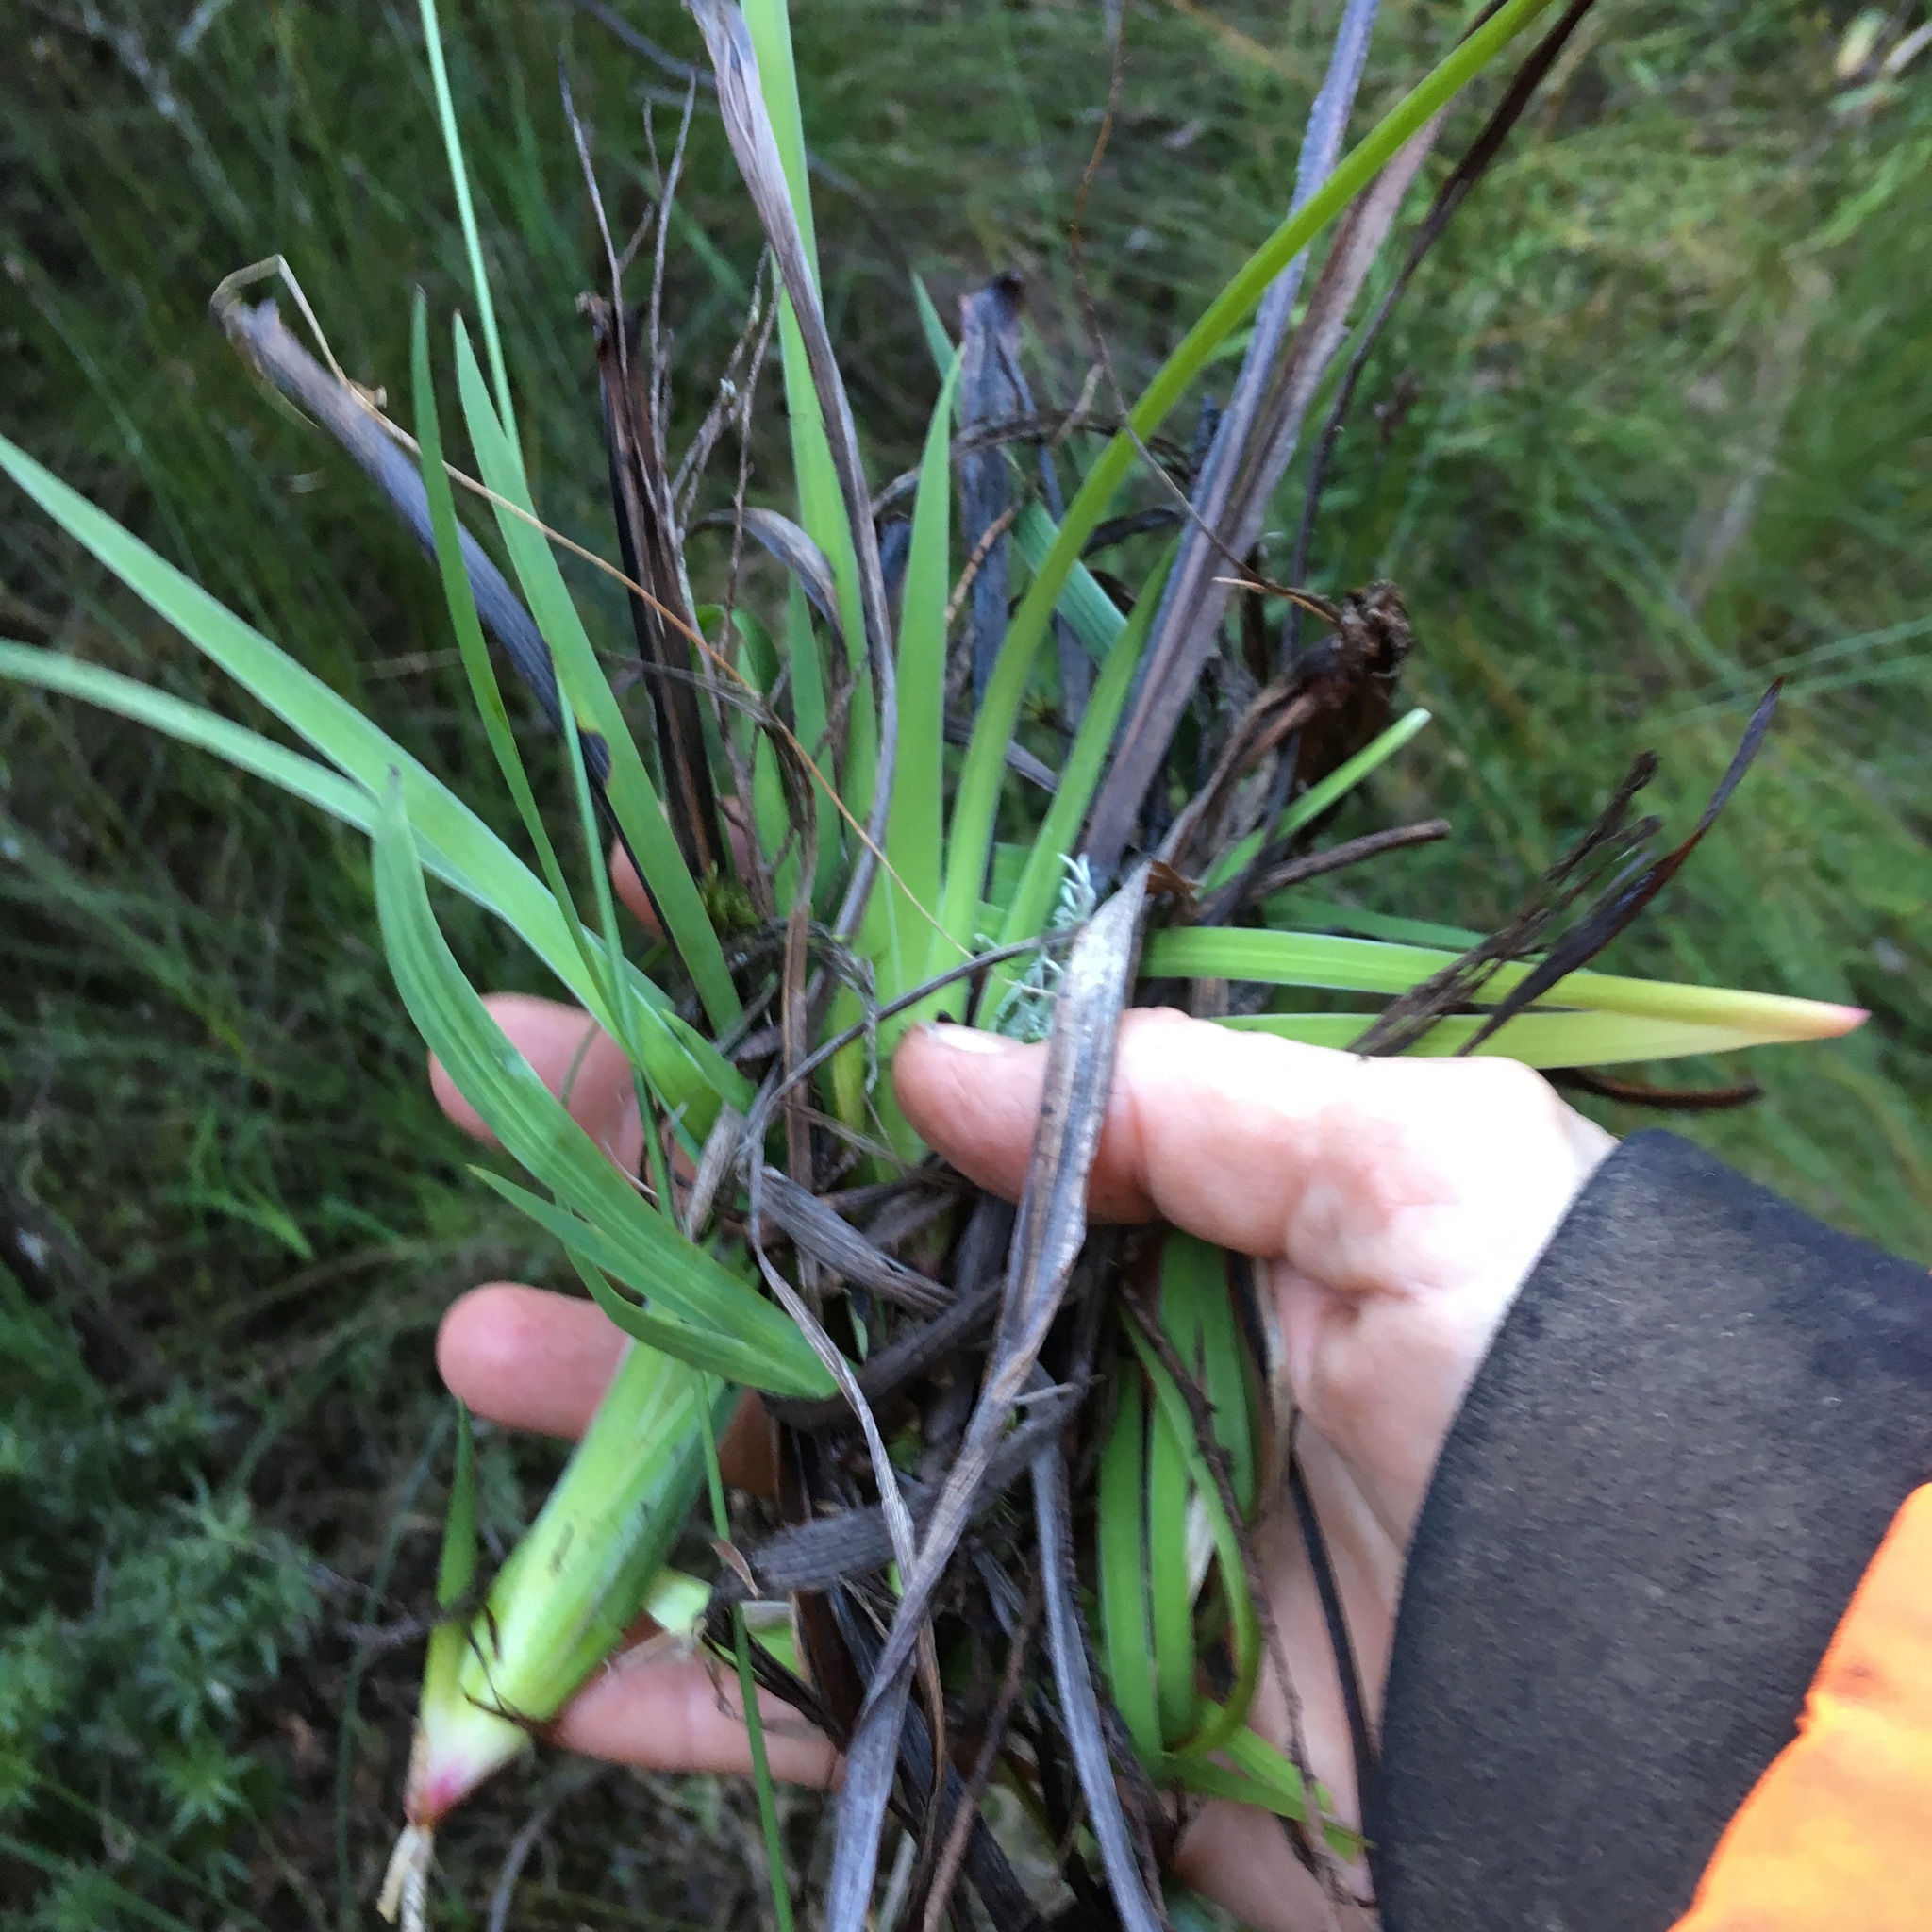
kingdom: Plantae
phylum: Tracheophyta
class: Liliopsida
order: Asparagales
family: Iridaceae
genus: Aristea
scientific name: Aristea ecklonii
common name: Blue corn-lily
